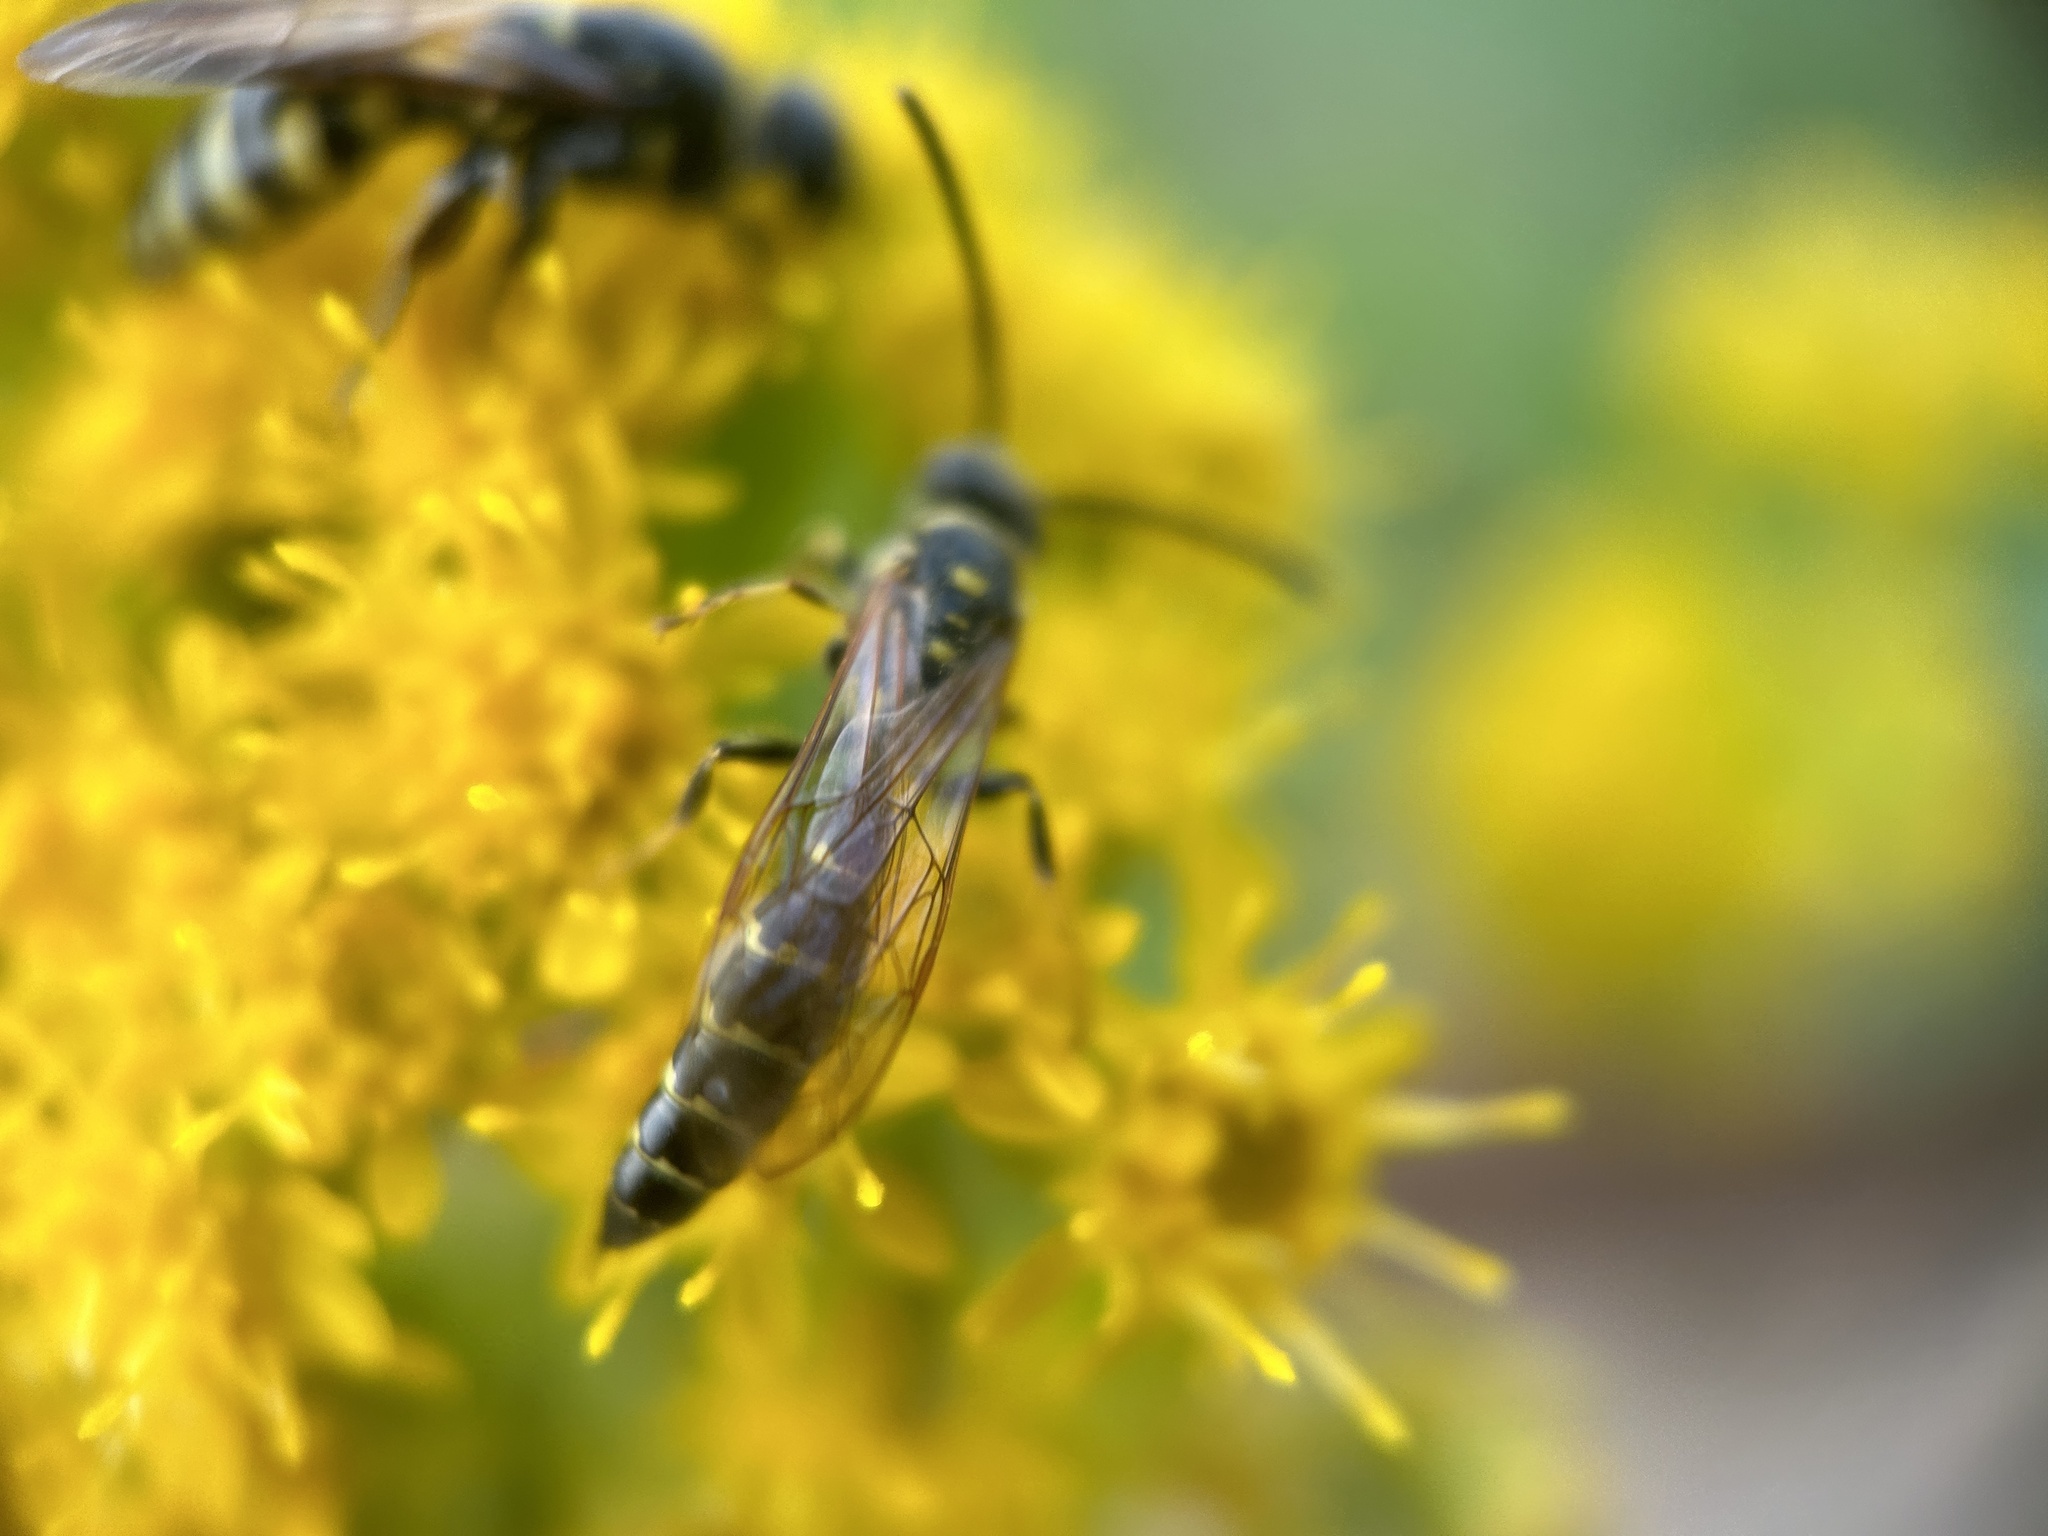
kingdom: Animalia
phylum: Arthropoda
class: Insecta
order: Hymenoptera
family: Tiphiidae
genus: Myzinum
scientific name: Myzinum maculatum
